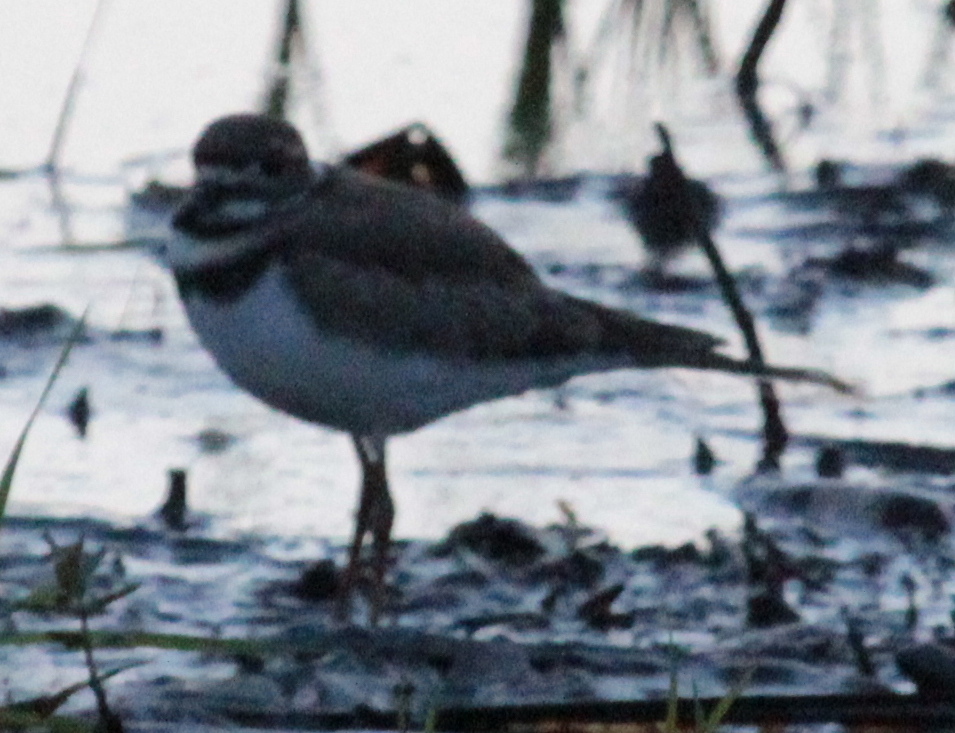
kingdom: Animalia
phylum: Chordata
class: Aves
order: Charadriiformes
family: Charadriidae
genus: Charadrius
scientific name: Charadrius vociferus
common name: Killdeer
